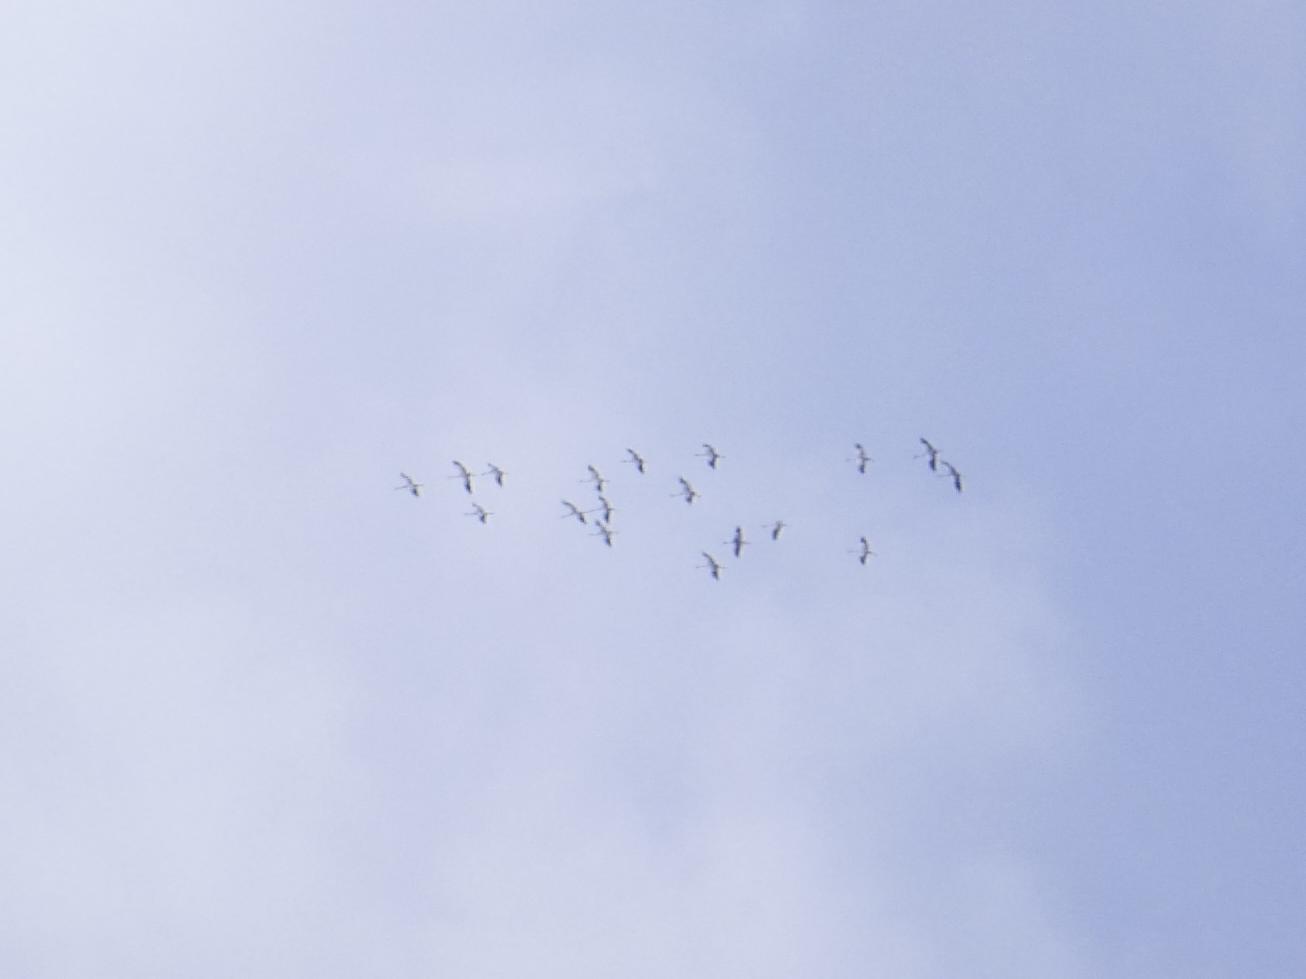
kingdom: Animalia
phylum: Chordata
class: Aves
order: Gruiformes
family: Gruidae
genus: Grus
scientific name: Grus grus
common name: Common crane
